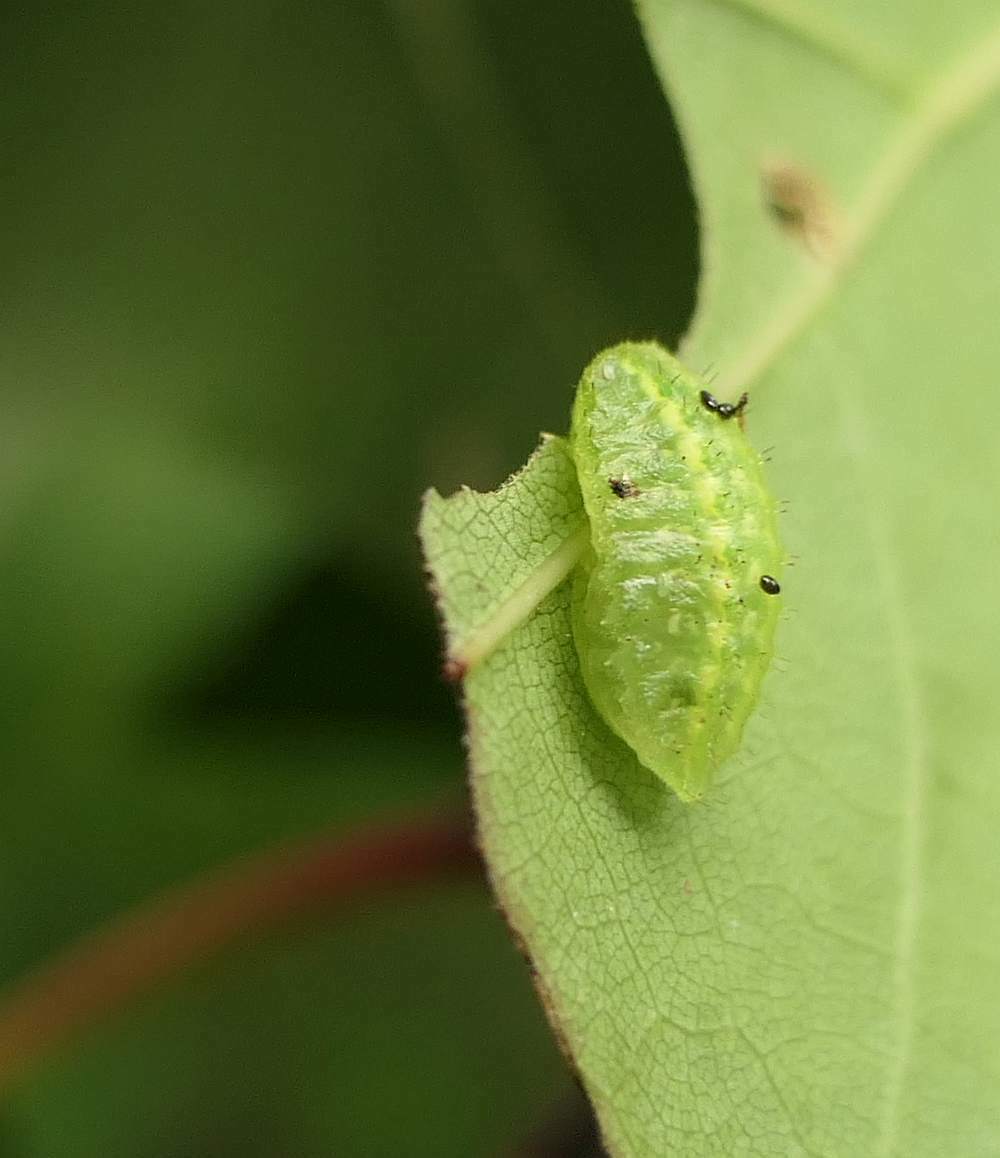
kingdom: Animalia
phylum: Arthropoda
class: Insecta
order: Lepidoptera
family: Limacodidae
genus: Lithacodes
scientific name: Lithacodes fasciola
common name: Yellow-shouldered slug moth
